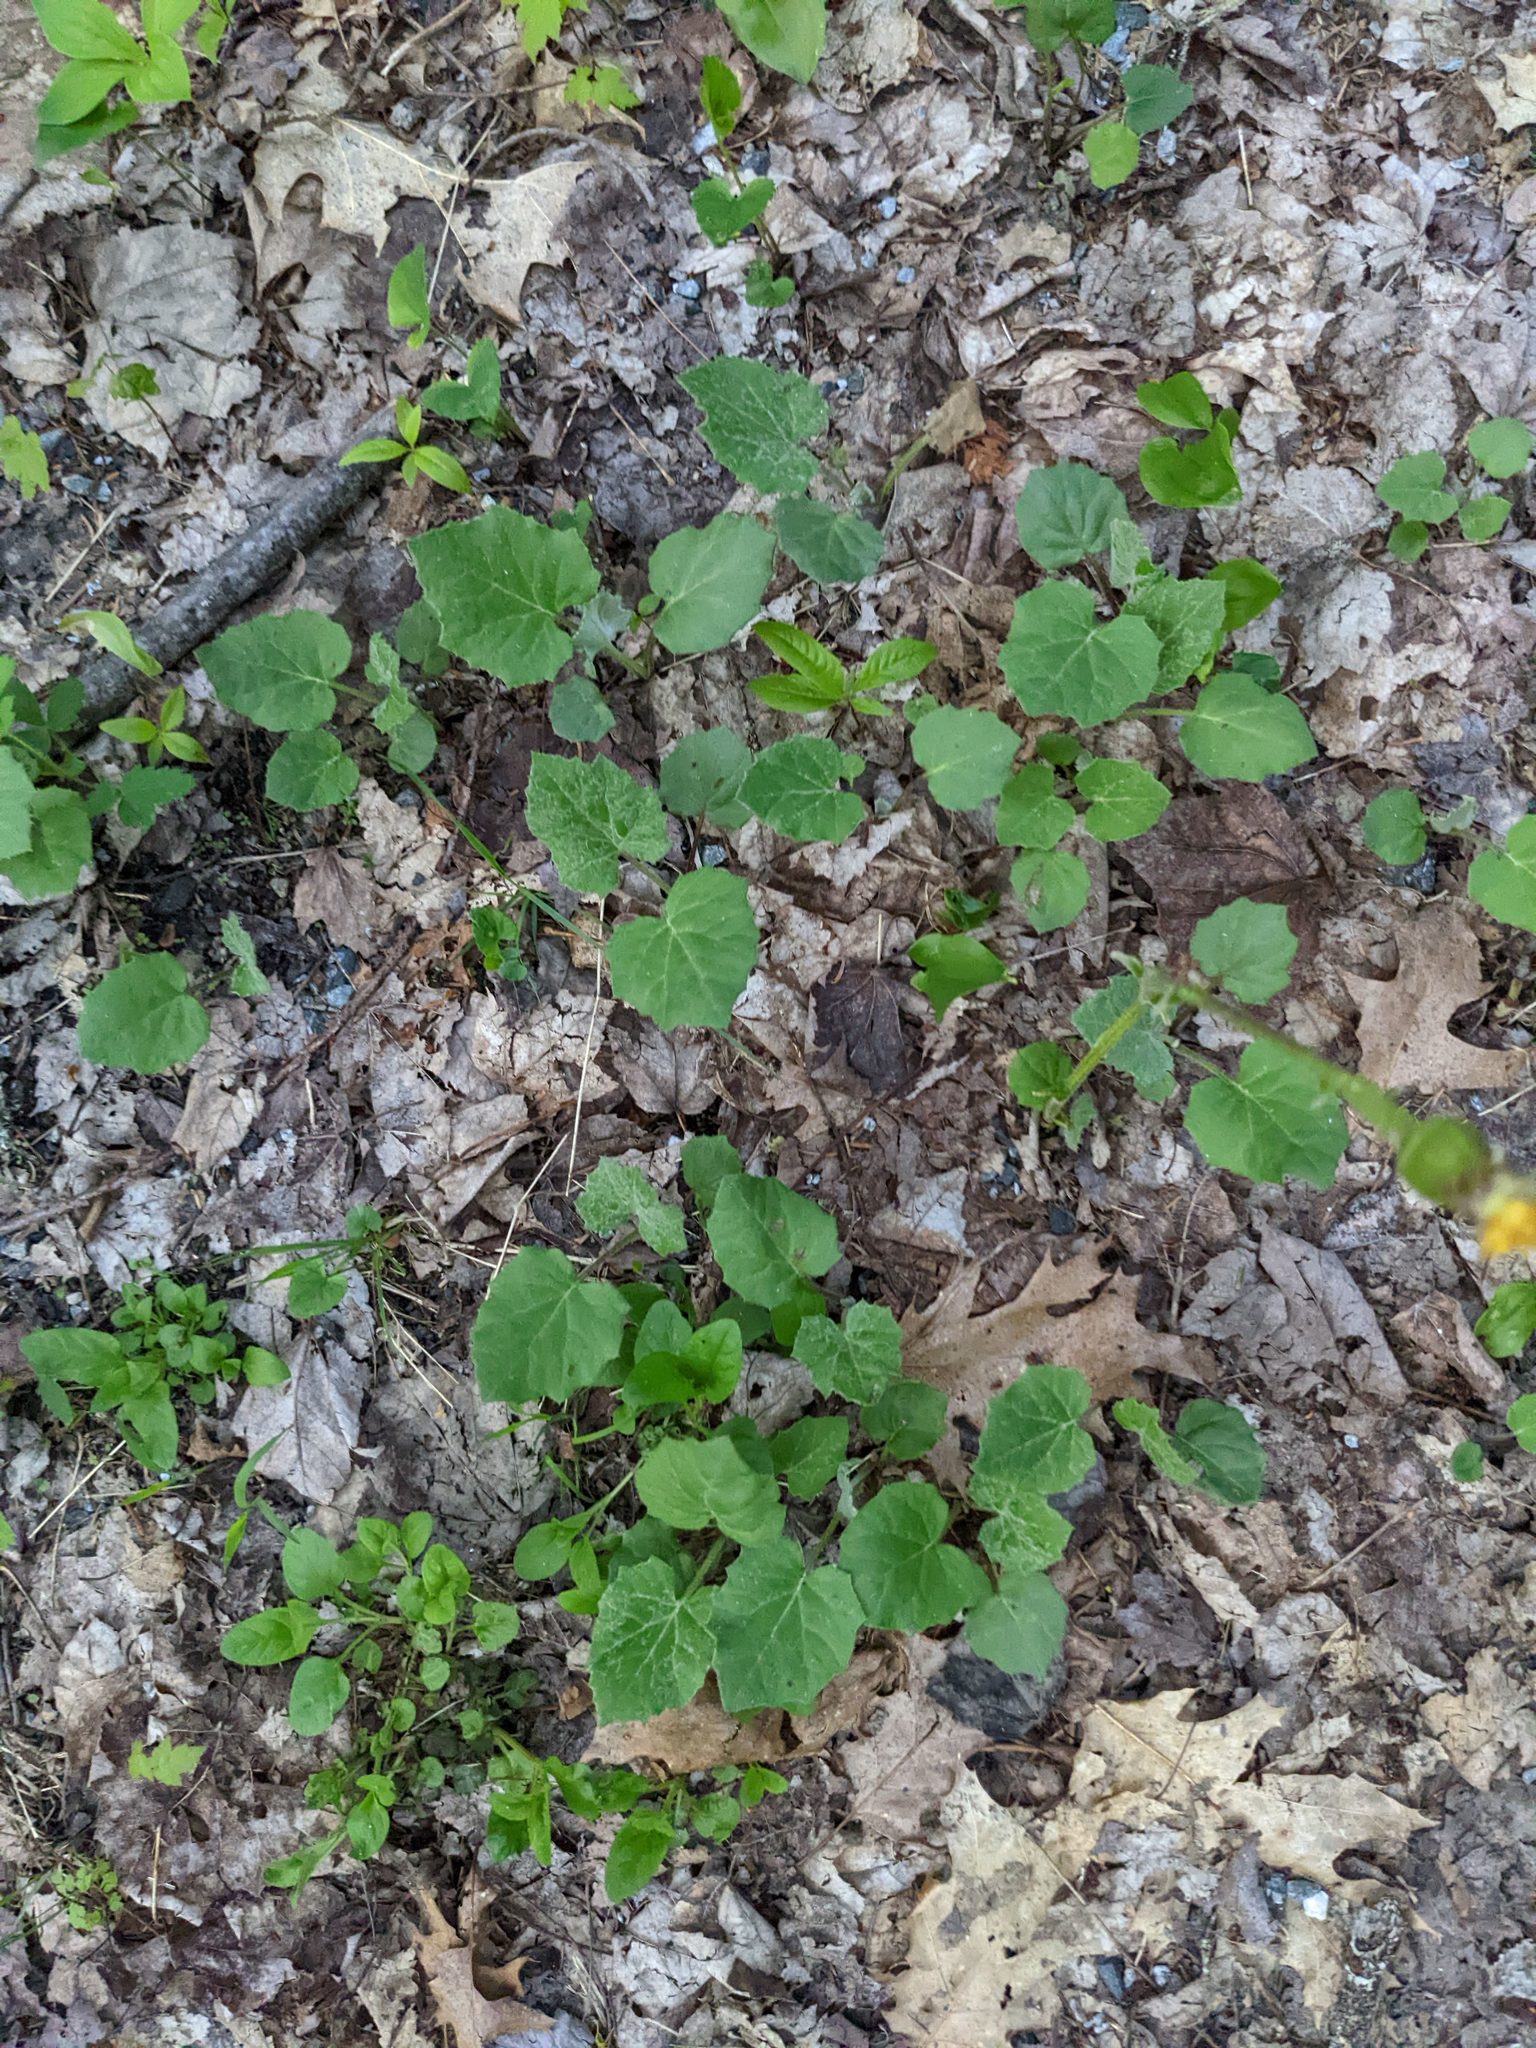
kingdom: Plantae
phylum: Tracheophyta
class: Magnoliopsida
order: Asterales
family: Asteraceae
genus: Tussilago
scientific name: Tussilago farfara
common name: Coltsfoot
